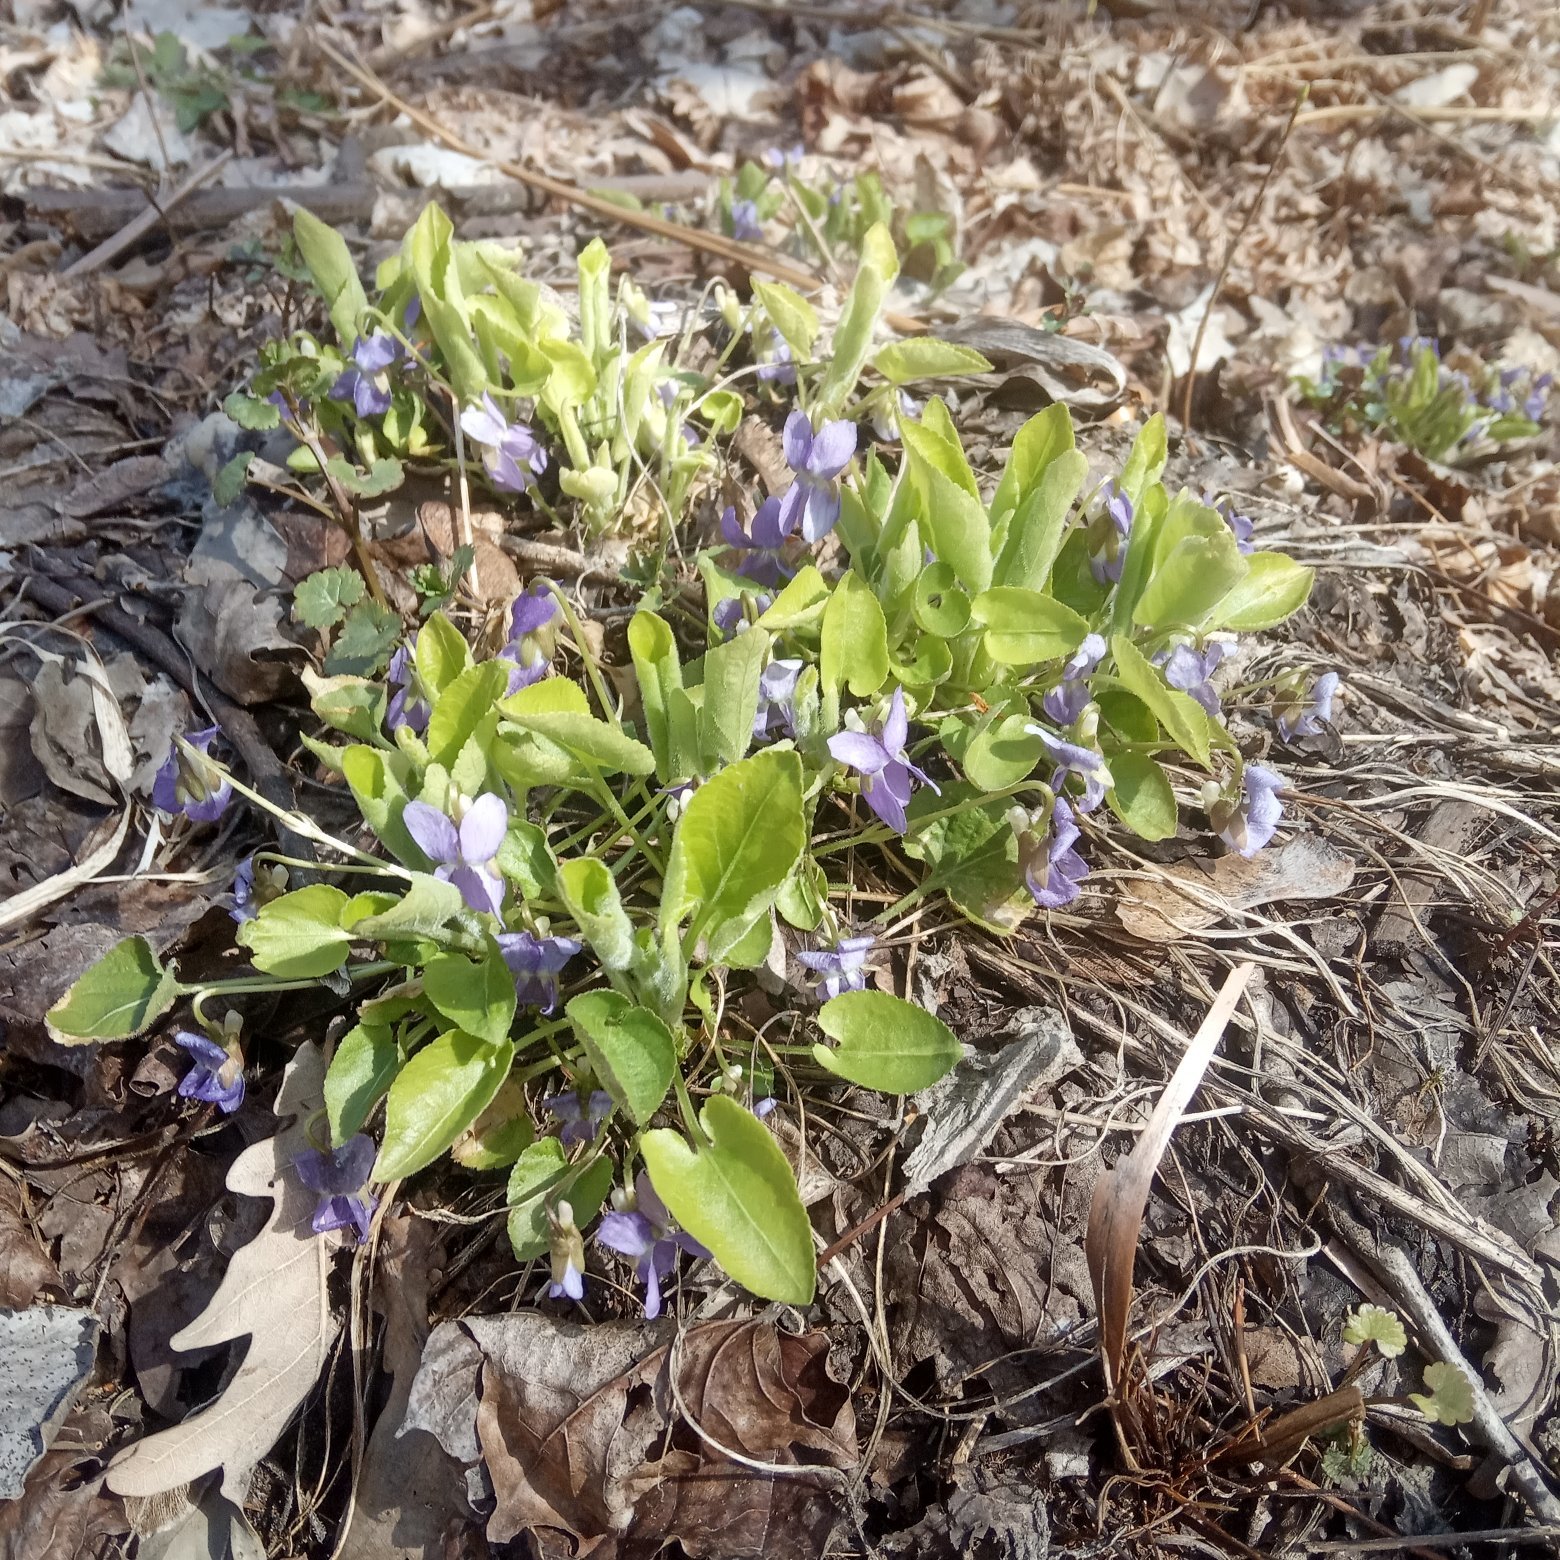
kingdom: Plantae
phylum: Tracheophyta
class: Magnoliopsida
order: Malpighiales
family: Violaceae
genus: Viola
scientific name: Viola collina
